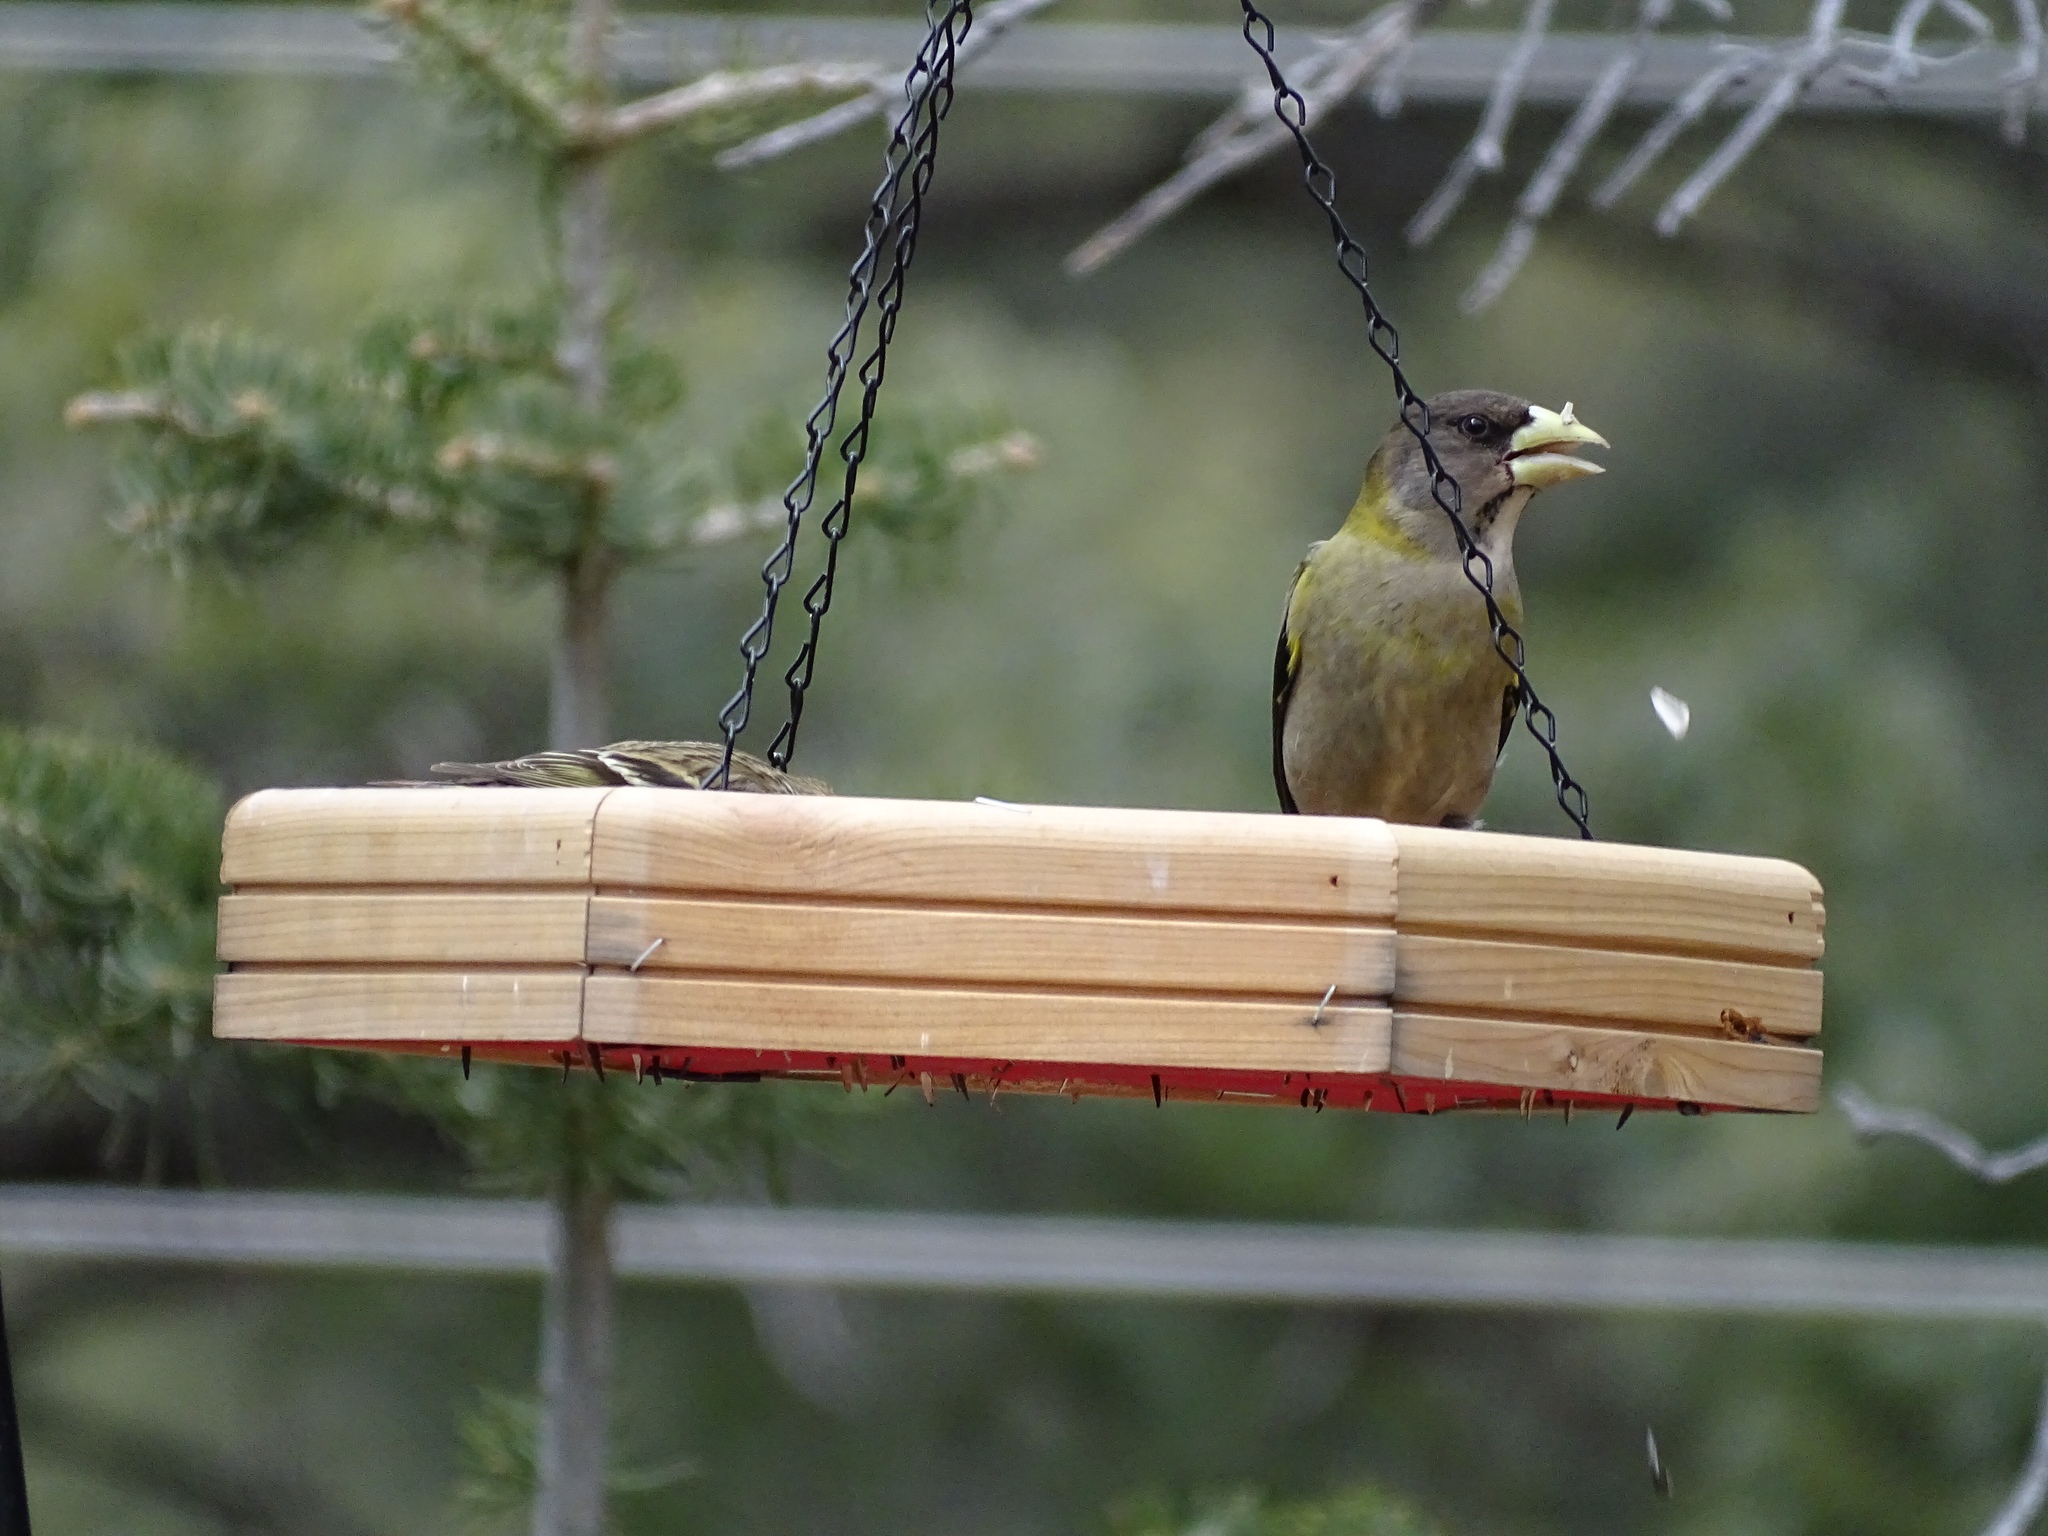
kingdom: Animalia
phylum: Chordata
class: Aves
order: Passeriformes
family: Fringillidae
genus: Hesperiphona
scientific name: Hesperiphona vespertina
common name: Evening grosbeak
